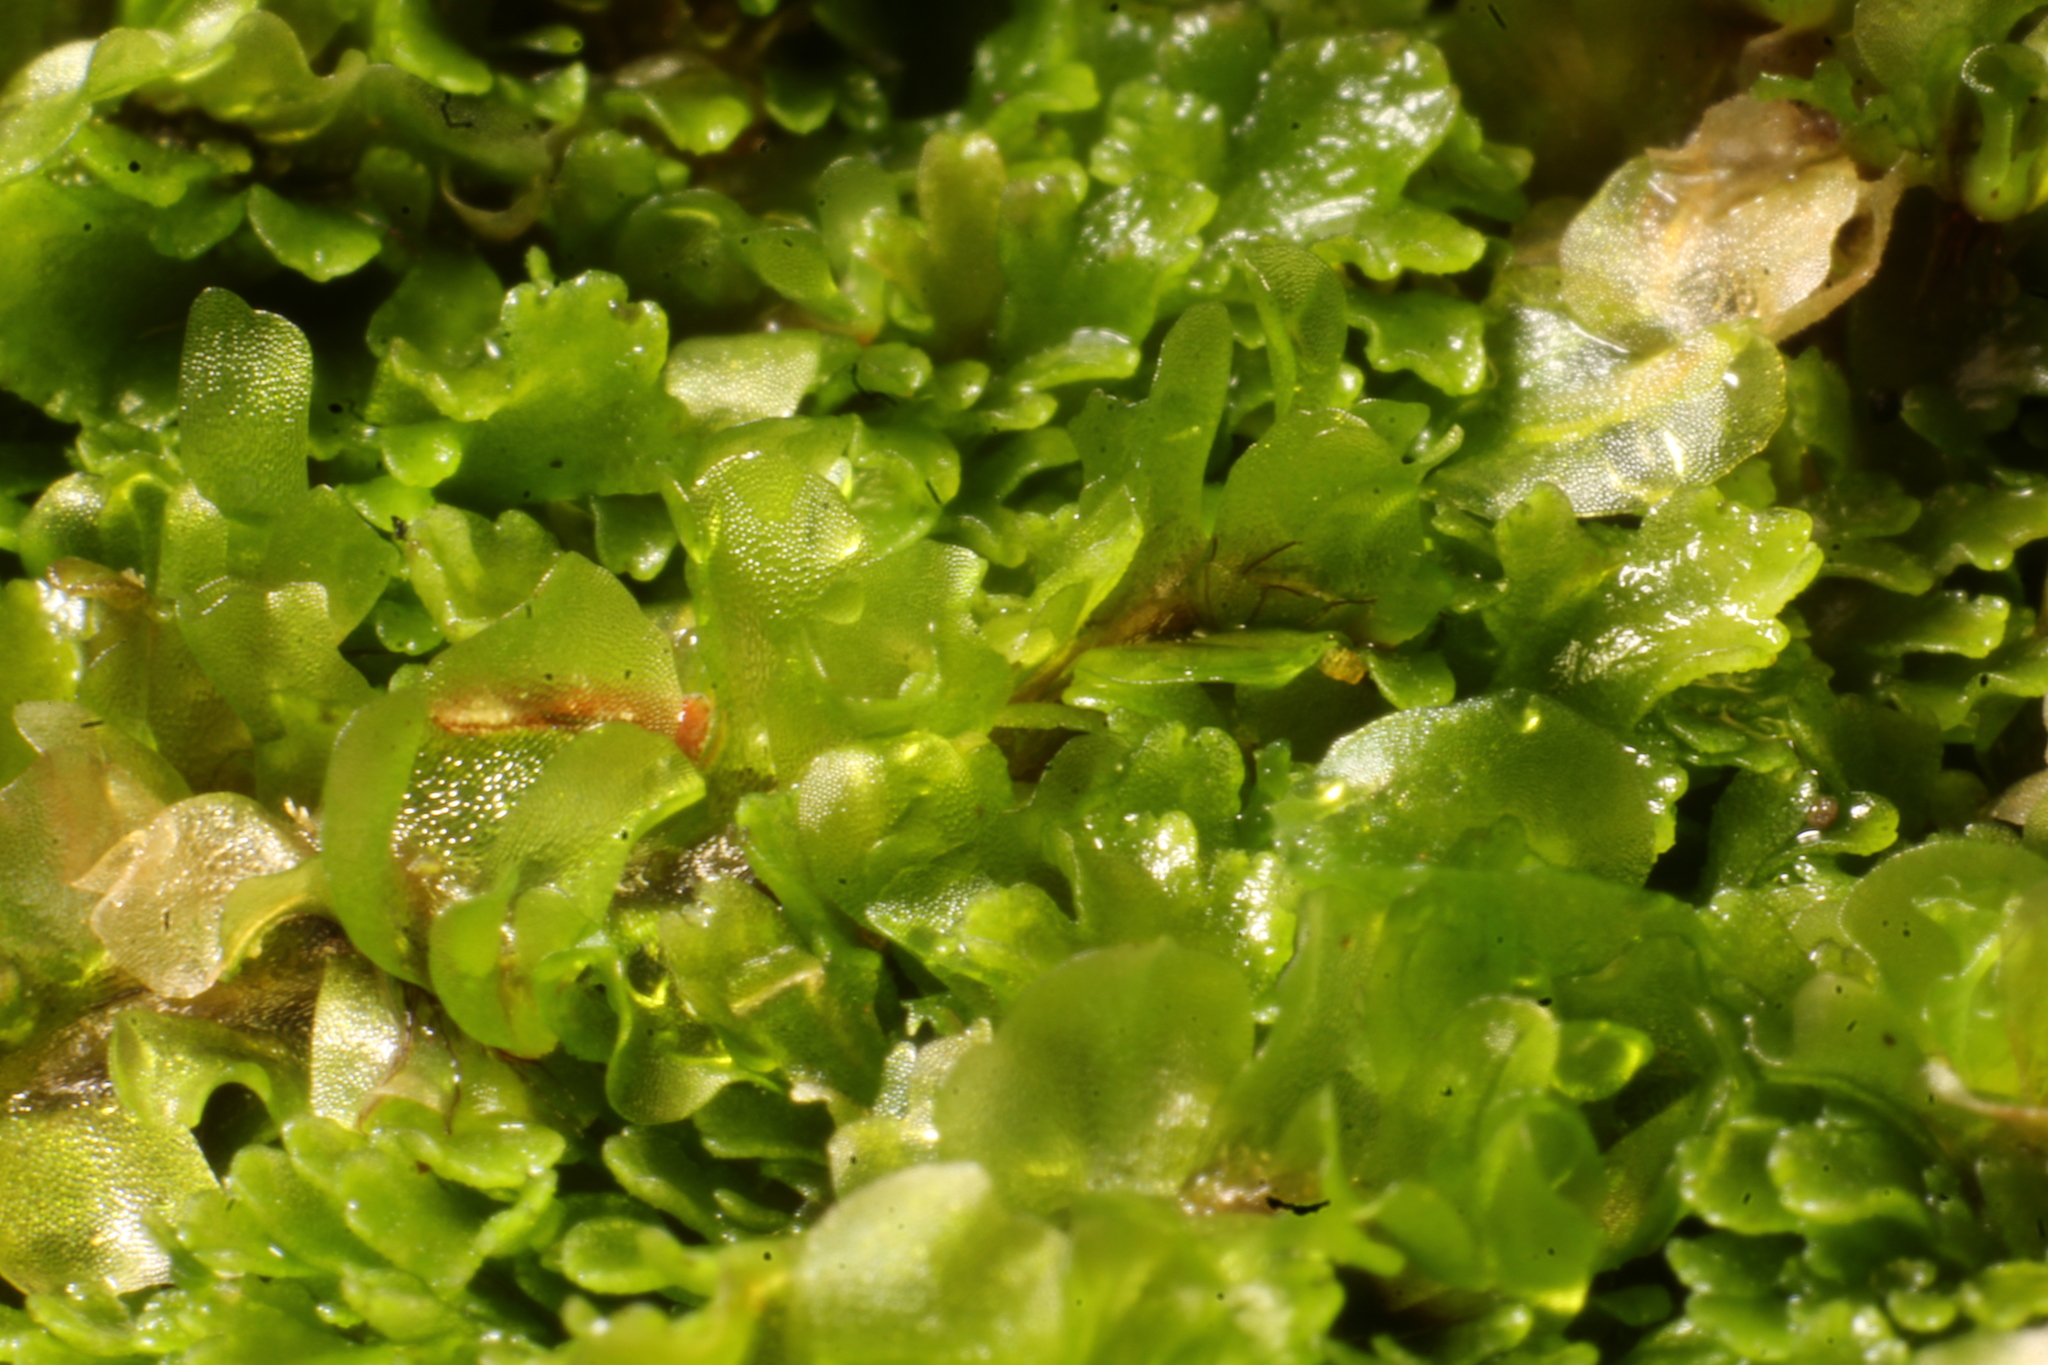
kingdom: Plantae
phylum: Marchantiophyta
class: Jungermanniopsida
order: Jungermanniales
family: Acrobolbaceae
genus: Lethocolea
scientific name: Lethocolea pansa
